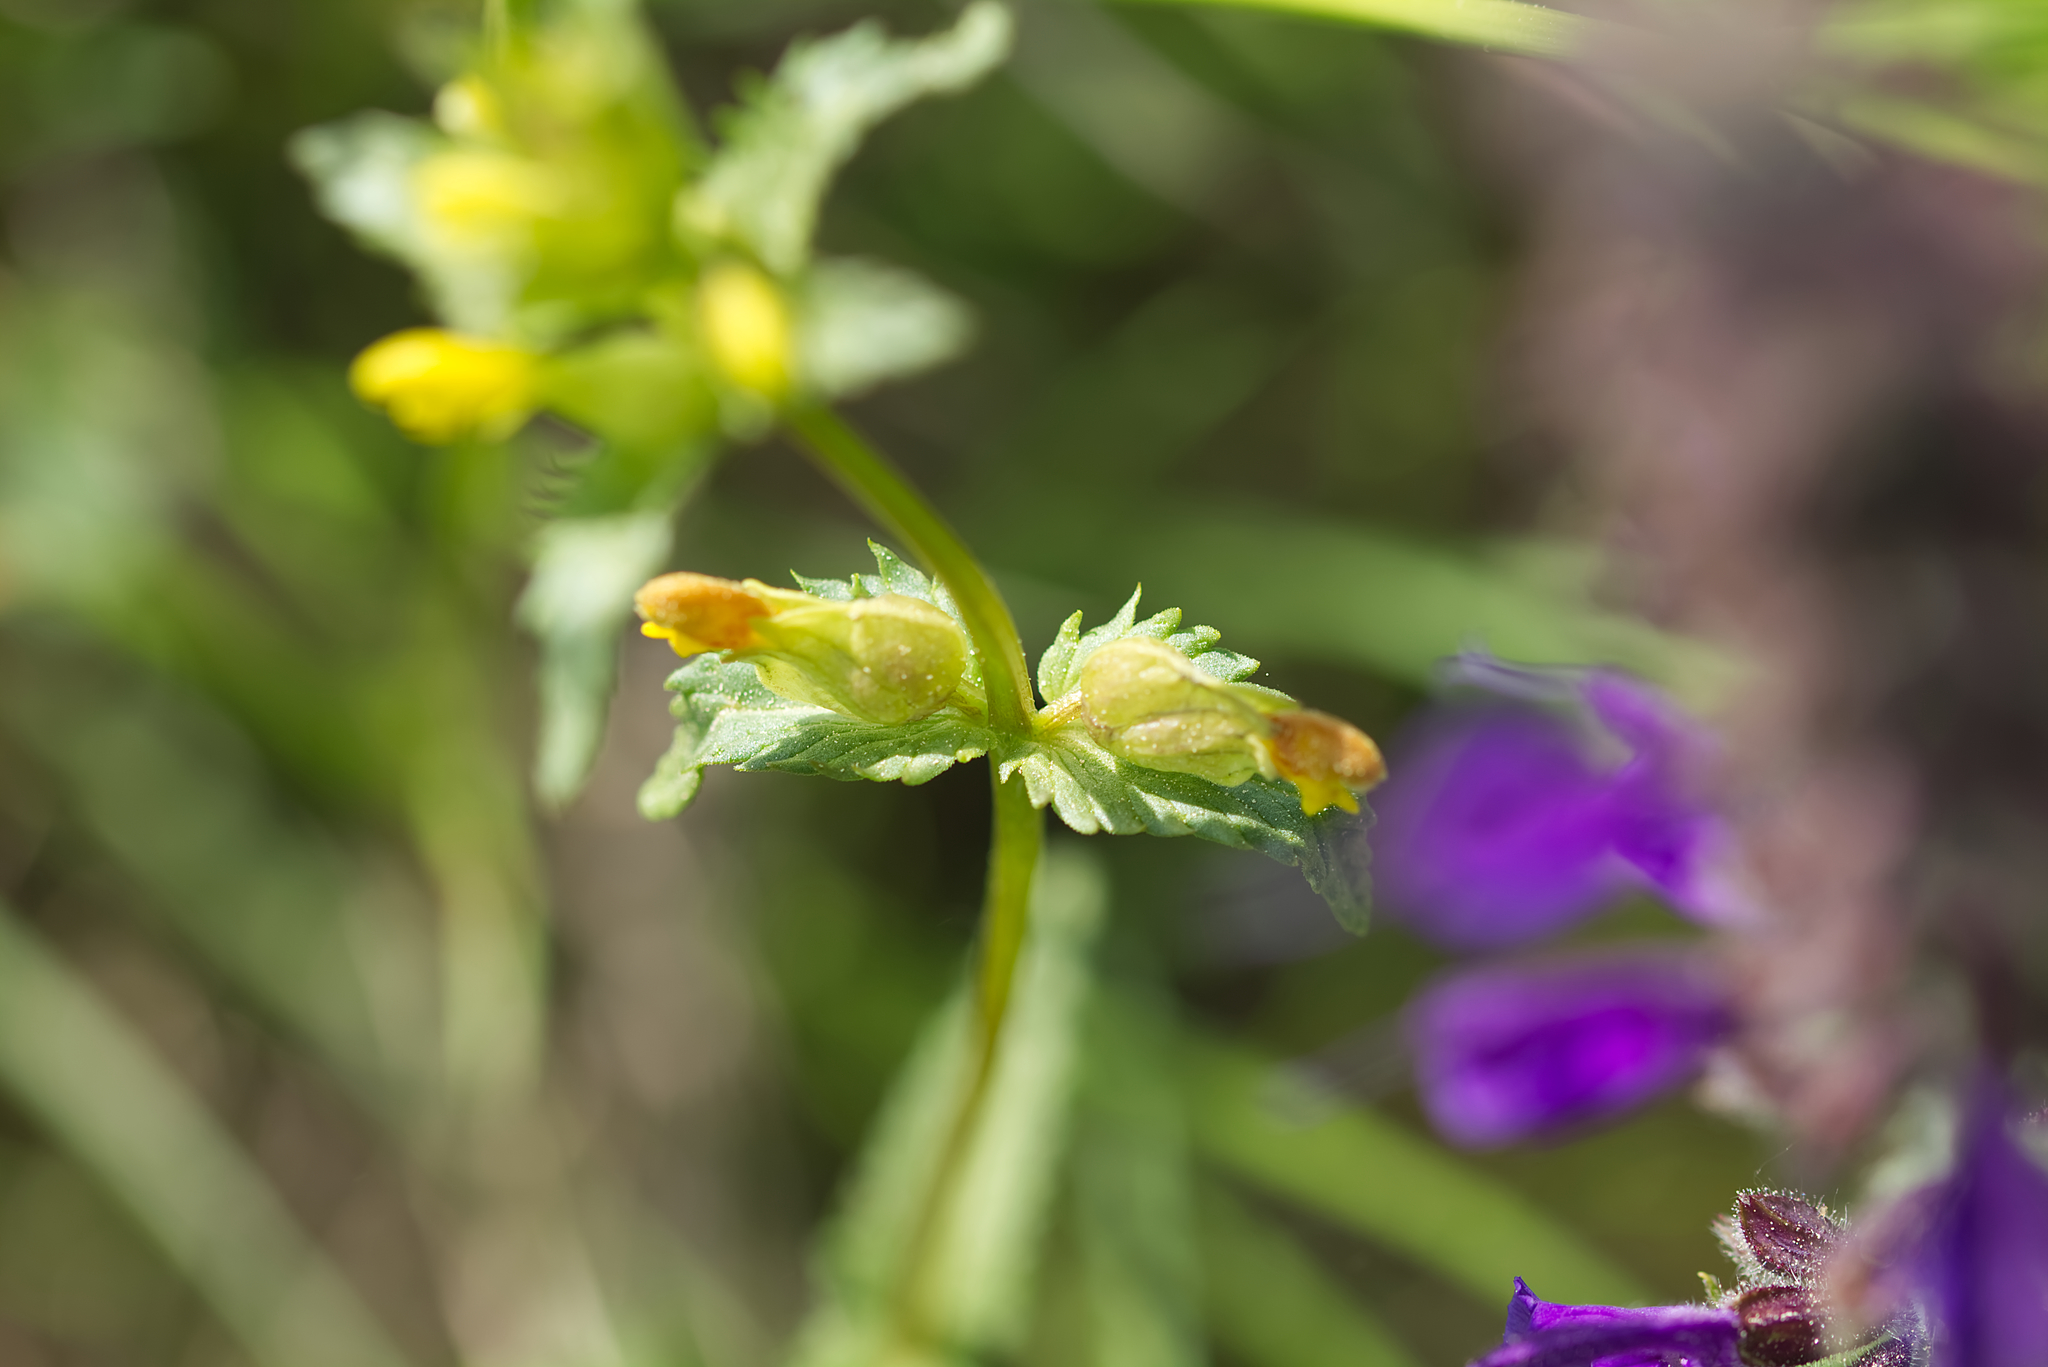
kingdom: Plantae
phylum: Tracheophyta
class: Magnoliopsida
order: Lamiales
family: Orobanchaceae
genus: Rhinanthus
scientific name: Rhinanthus minor
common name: Yellow-rattle
